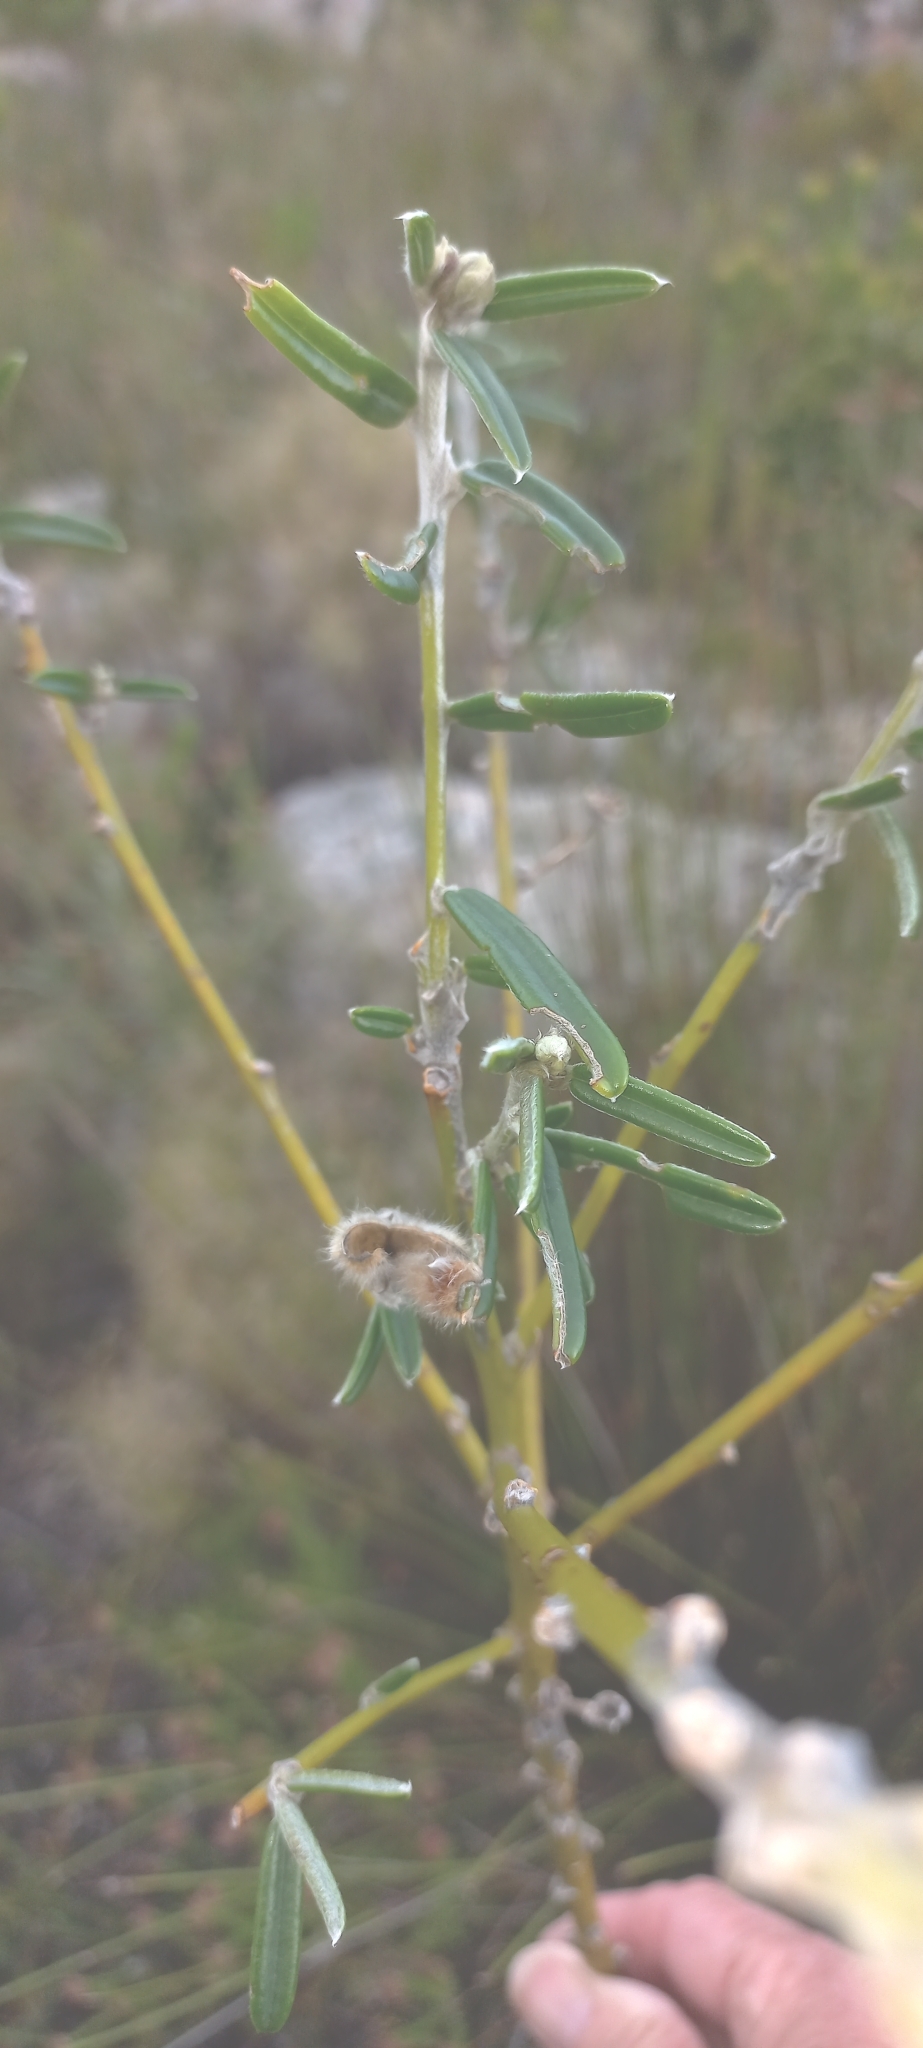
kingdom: Plantae
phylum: Tracheophyta
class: Magnoliopsida
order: Fabales
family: Fabaceae
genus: Podalyria
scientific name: Podalyria oleifolia
